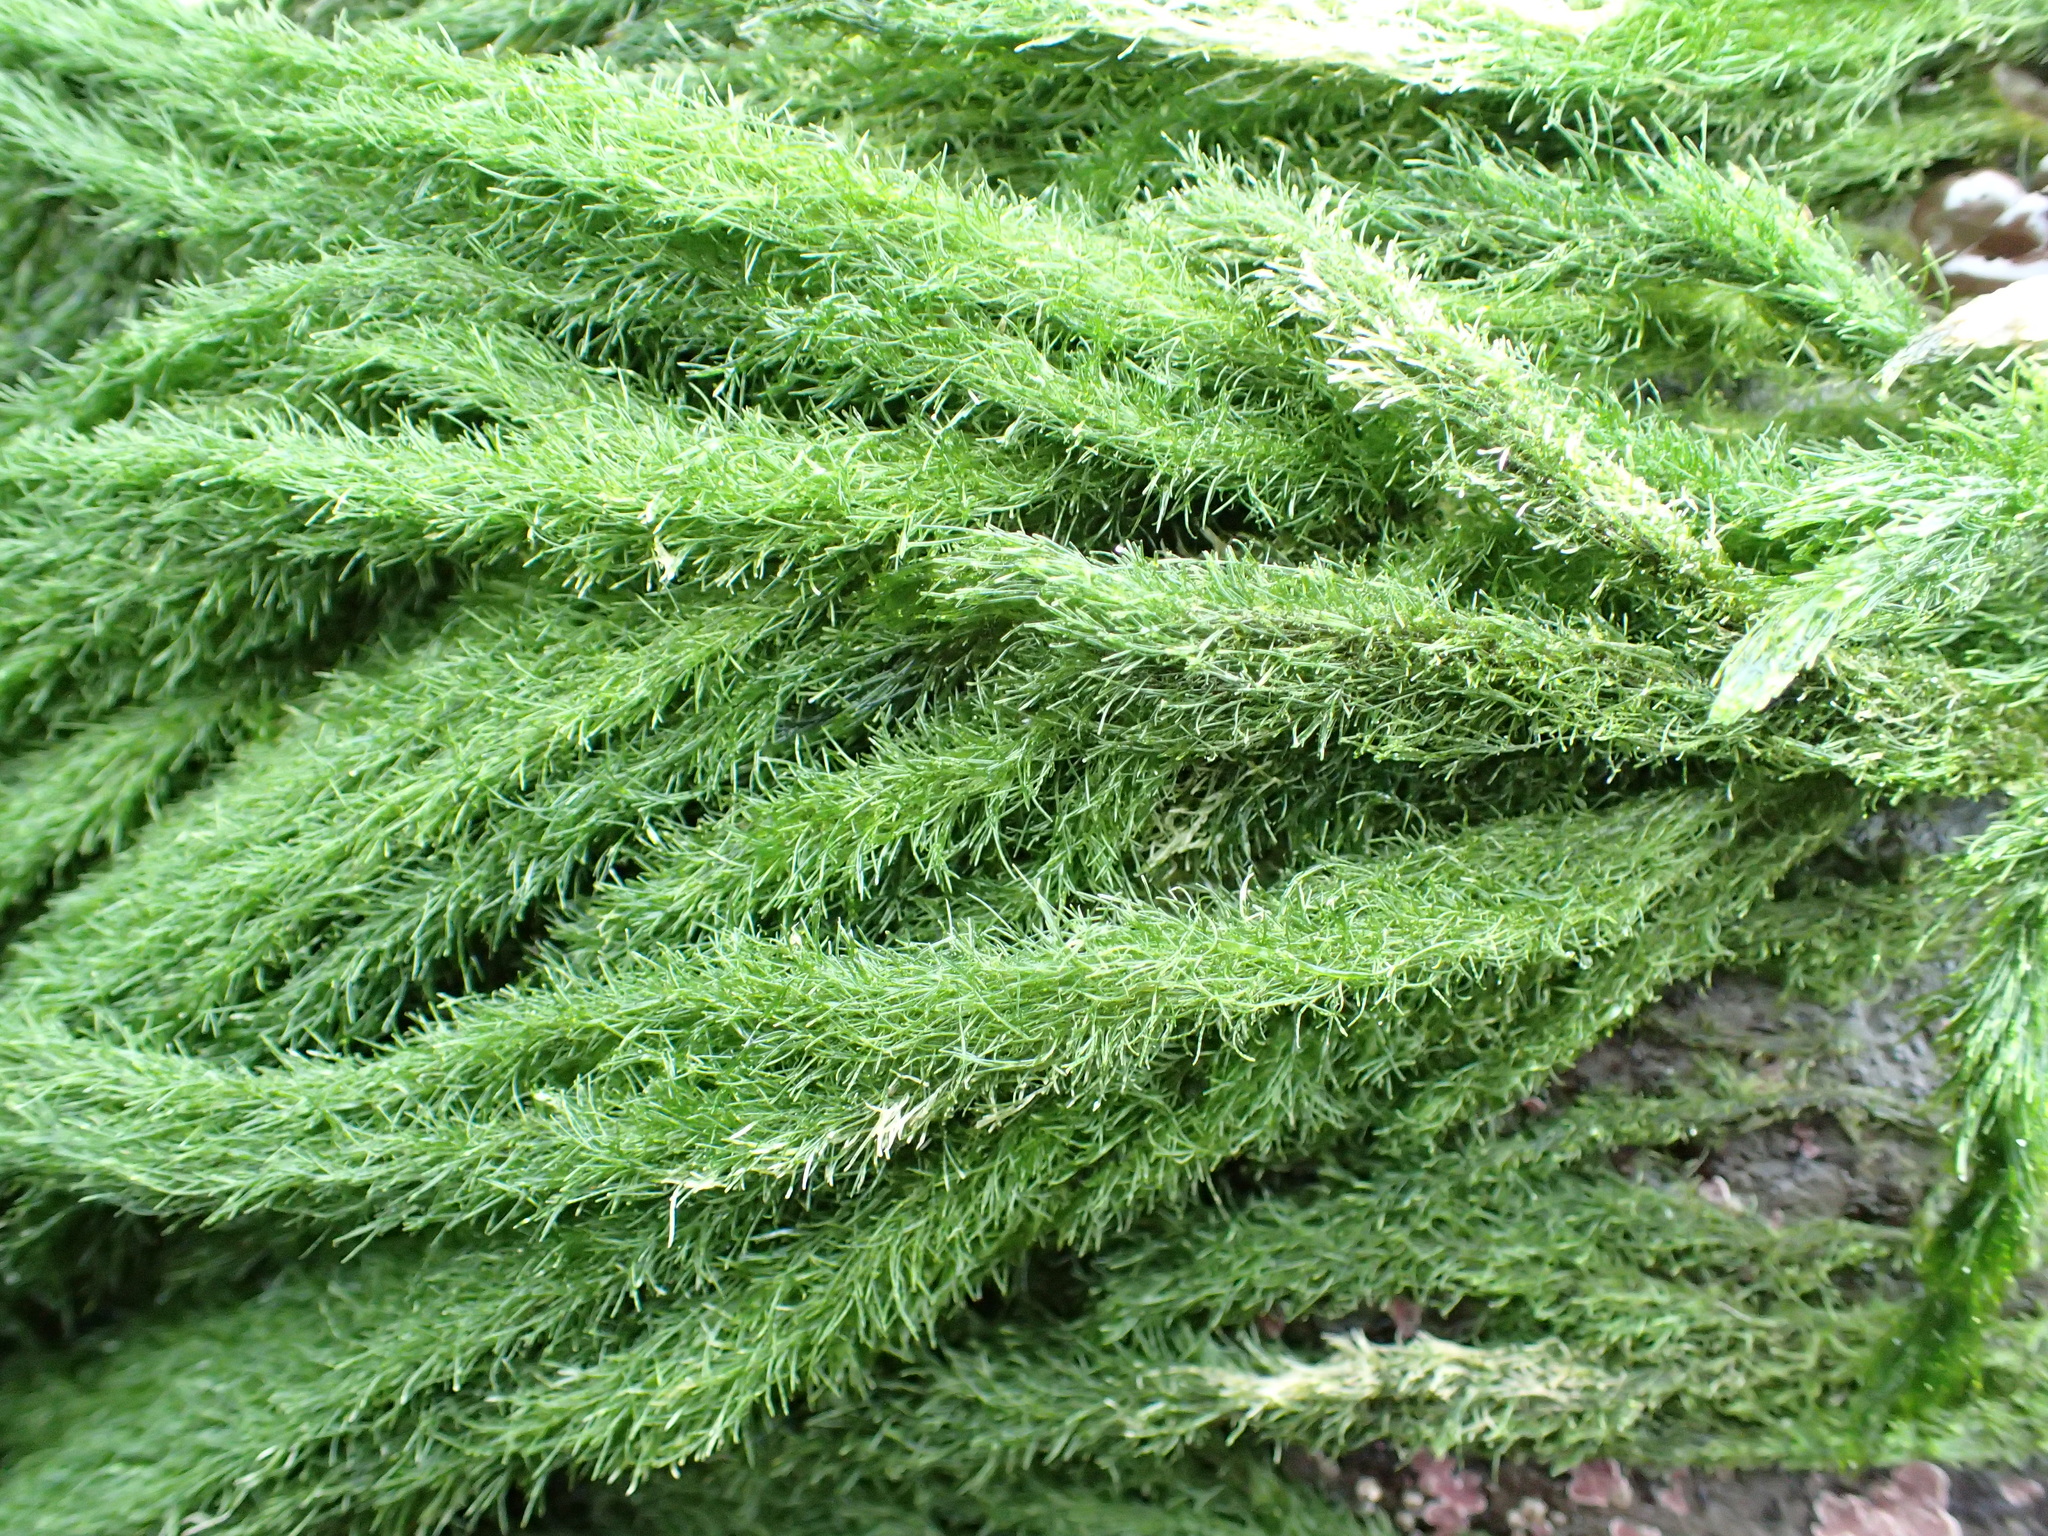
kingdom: Plantae
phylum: Chlorophyta
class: Ulvophyceae
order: Ulotrichales
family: Ulotrichaceae
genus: Acrosiphonia
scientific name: Acrosiphonia
